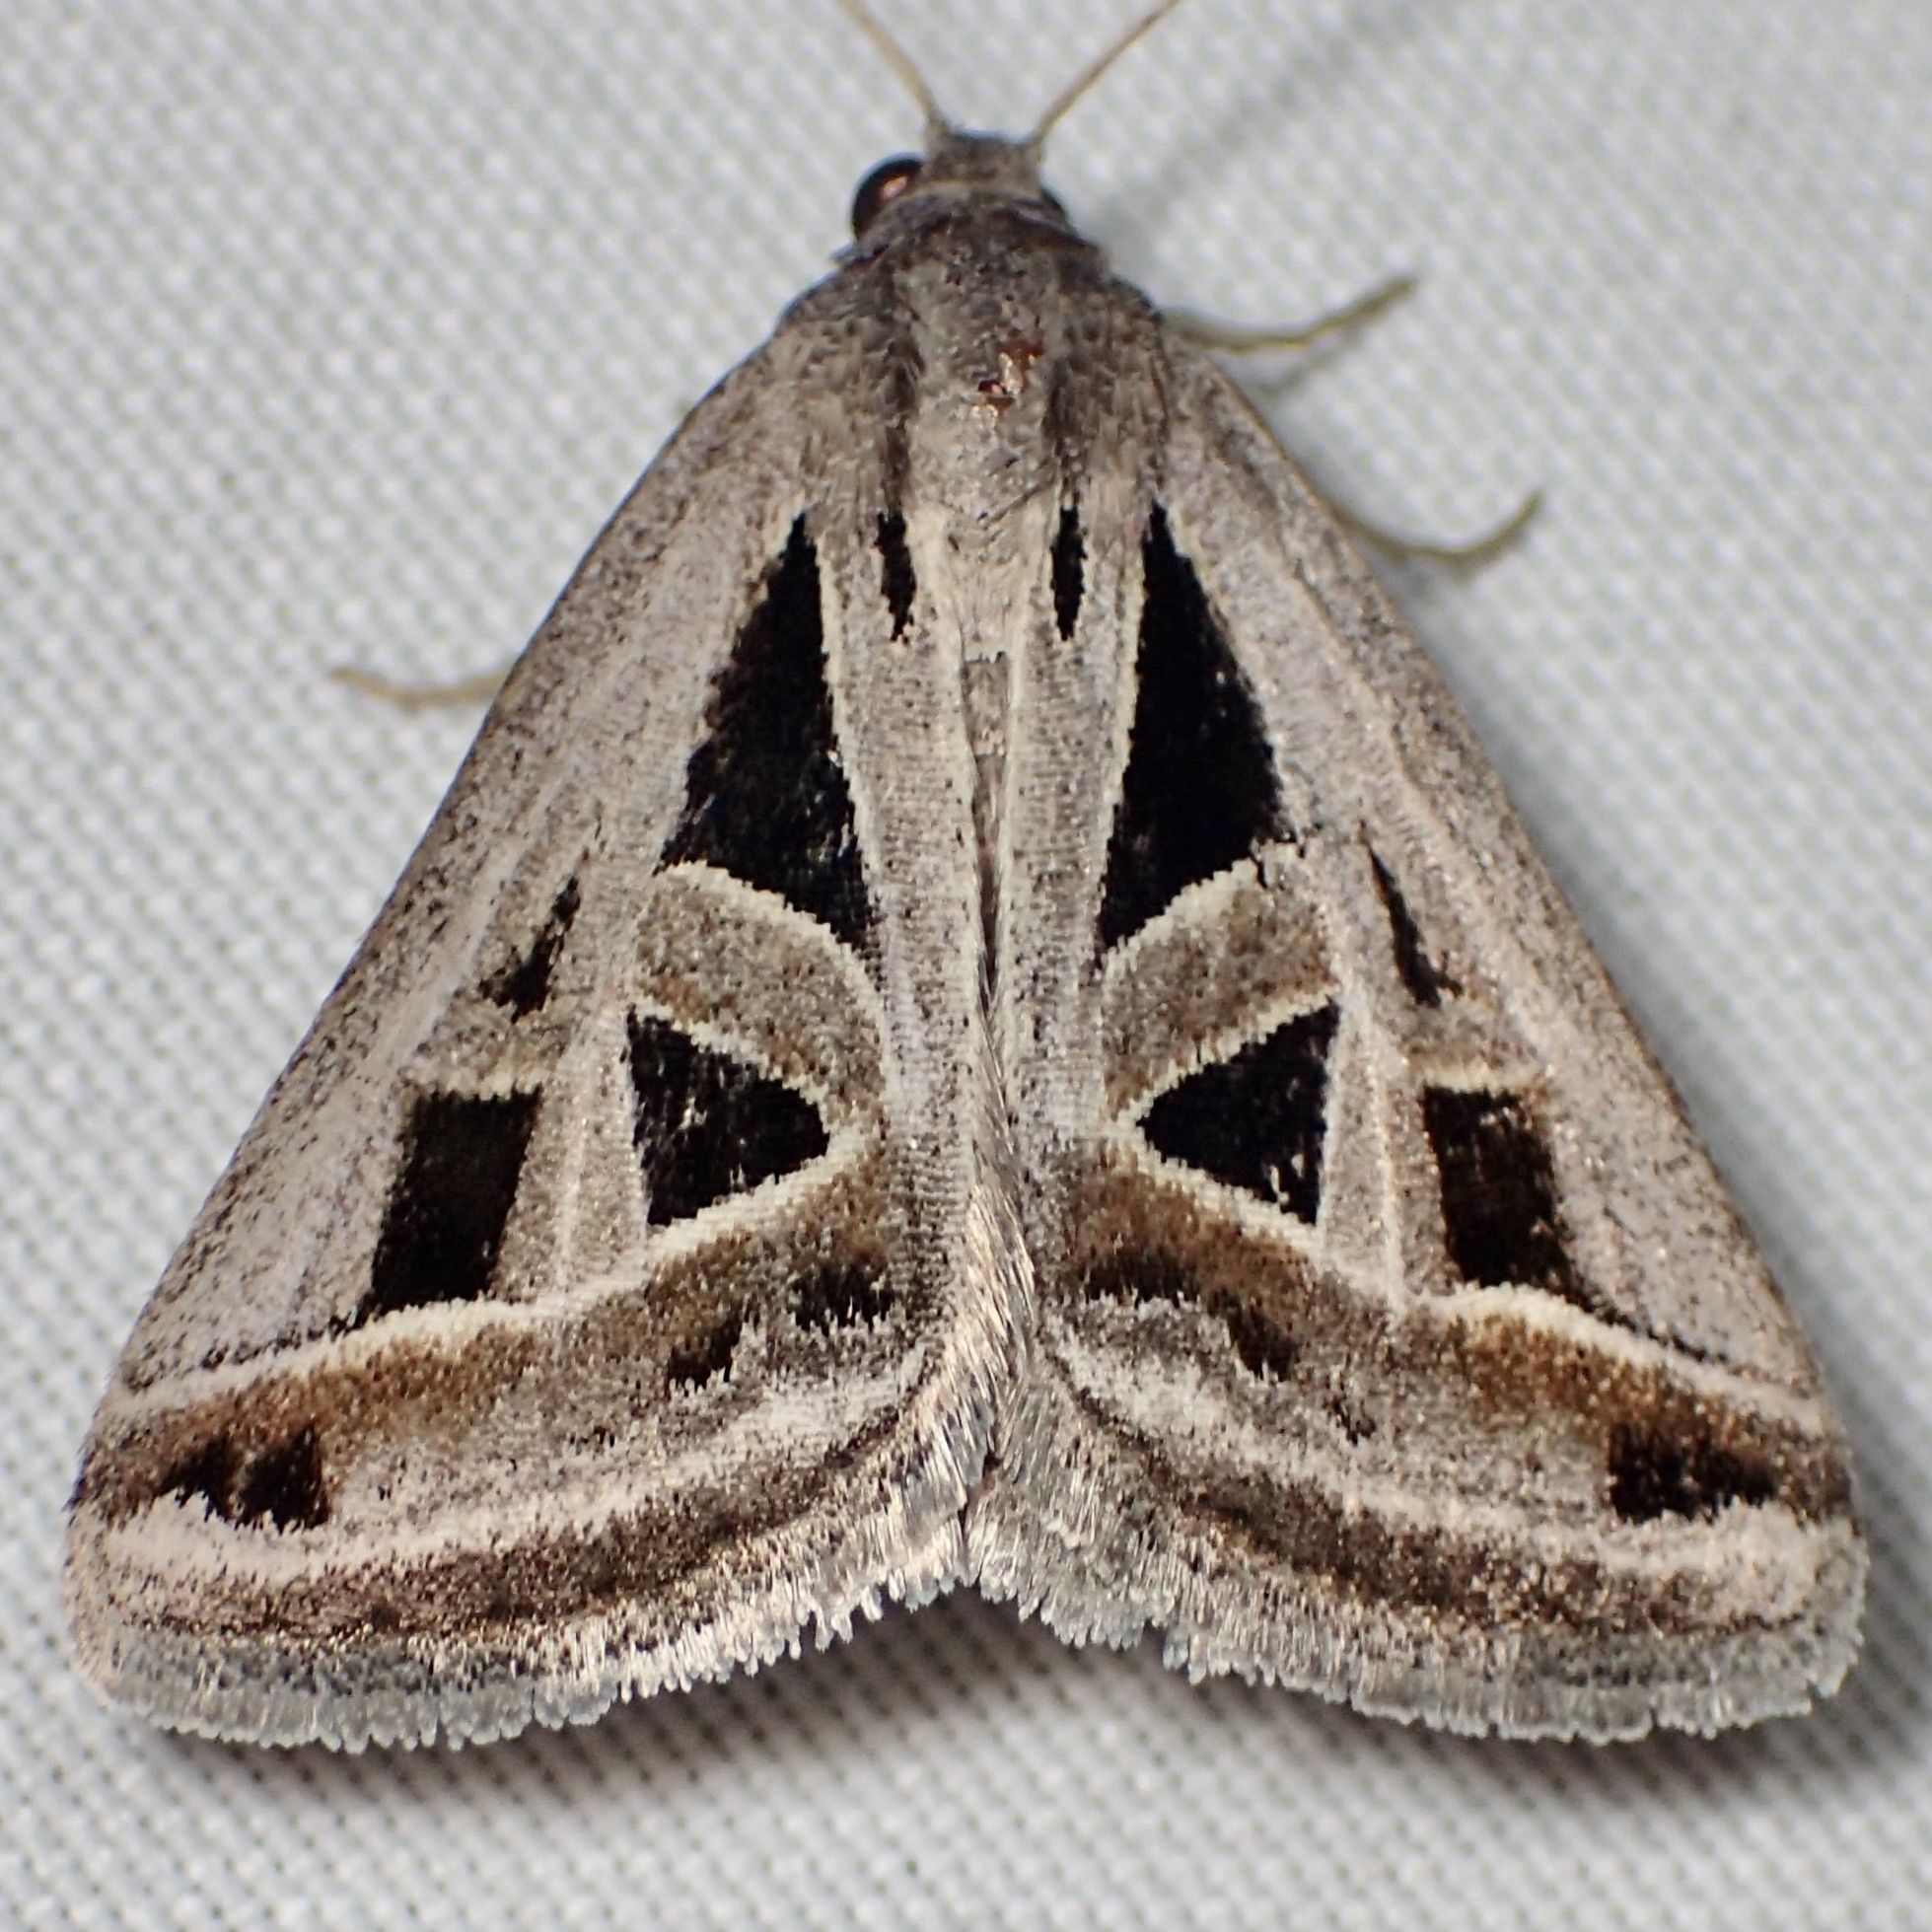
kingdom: Animalia
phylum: Arthropoda
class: Insecta
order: Lepidoptera
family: Erebidae
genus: Callistege
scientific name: Callistege diagonalis
